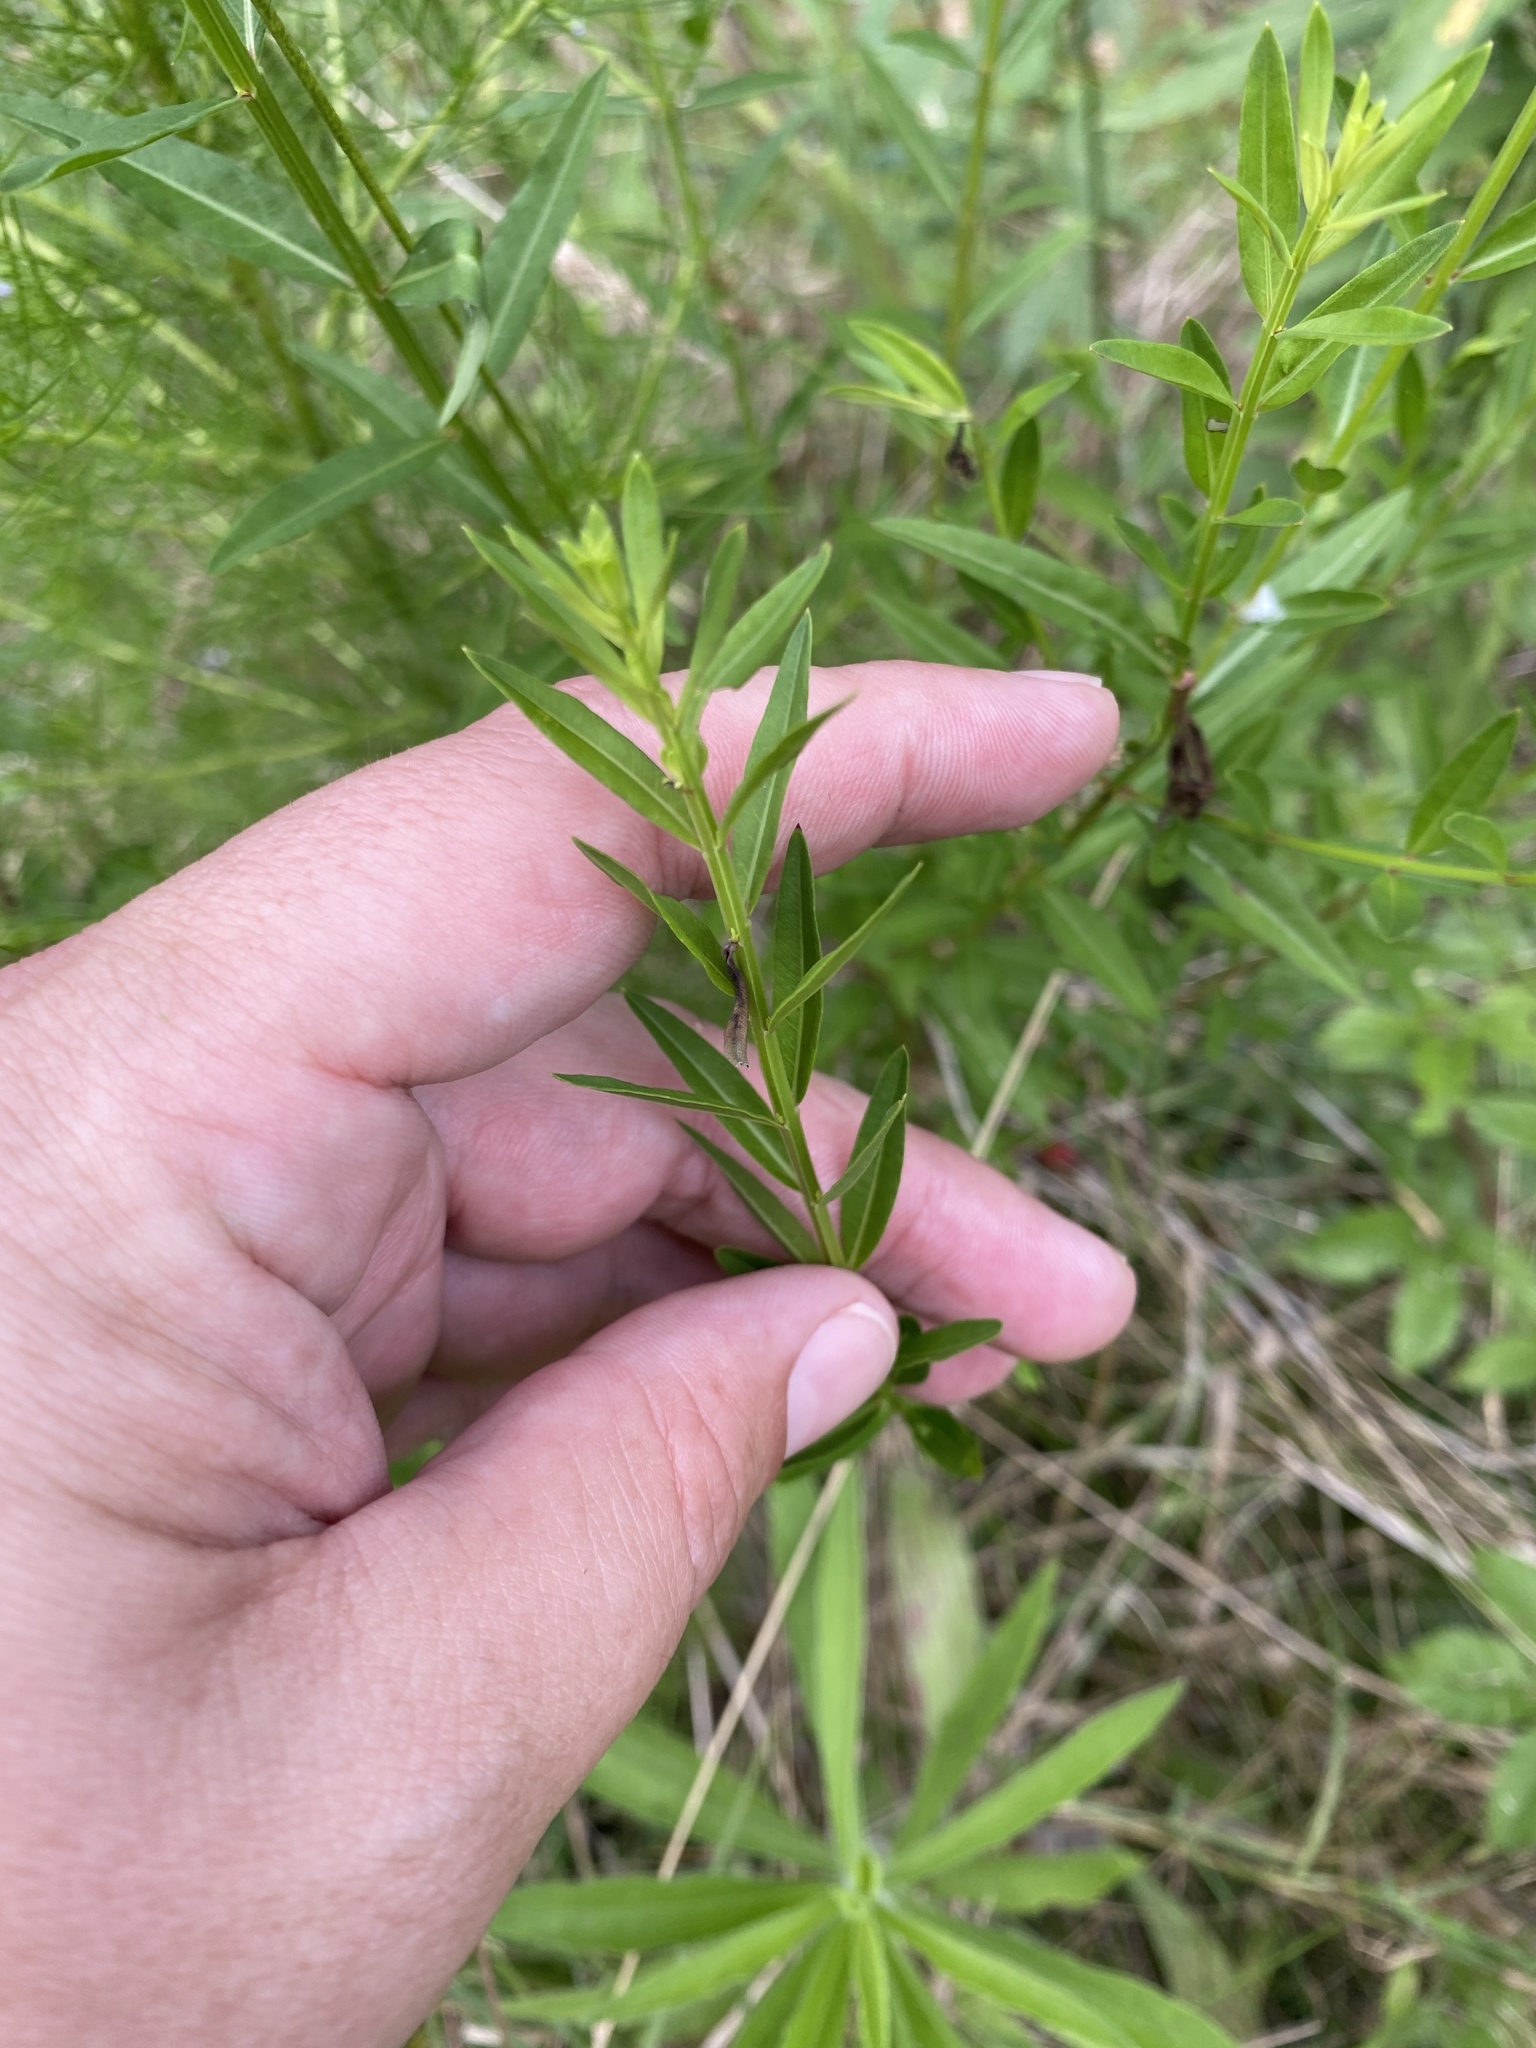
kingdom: Plantae
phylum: Tracheophyta
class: Magnoliopsida
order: Myrtales
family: Lythraceae
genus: Lythrum
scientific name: Lythrum alatum
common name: Winged loosestrife
